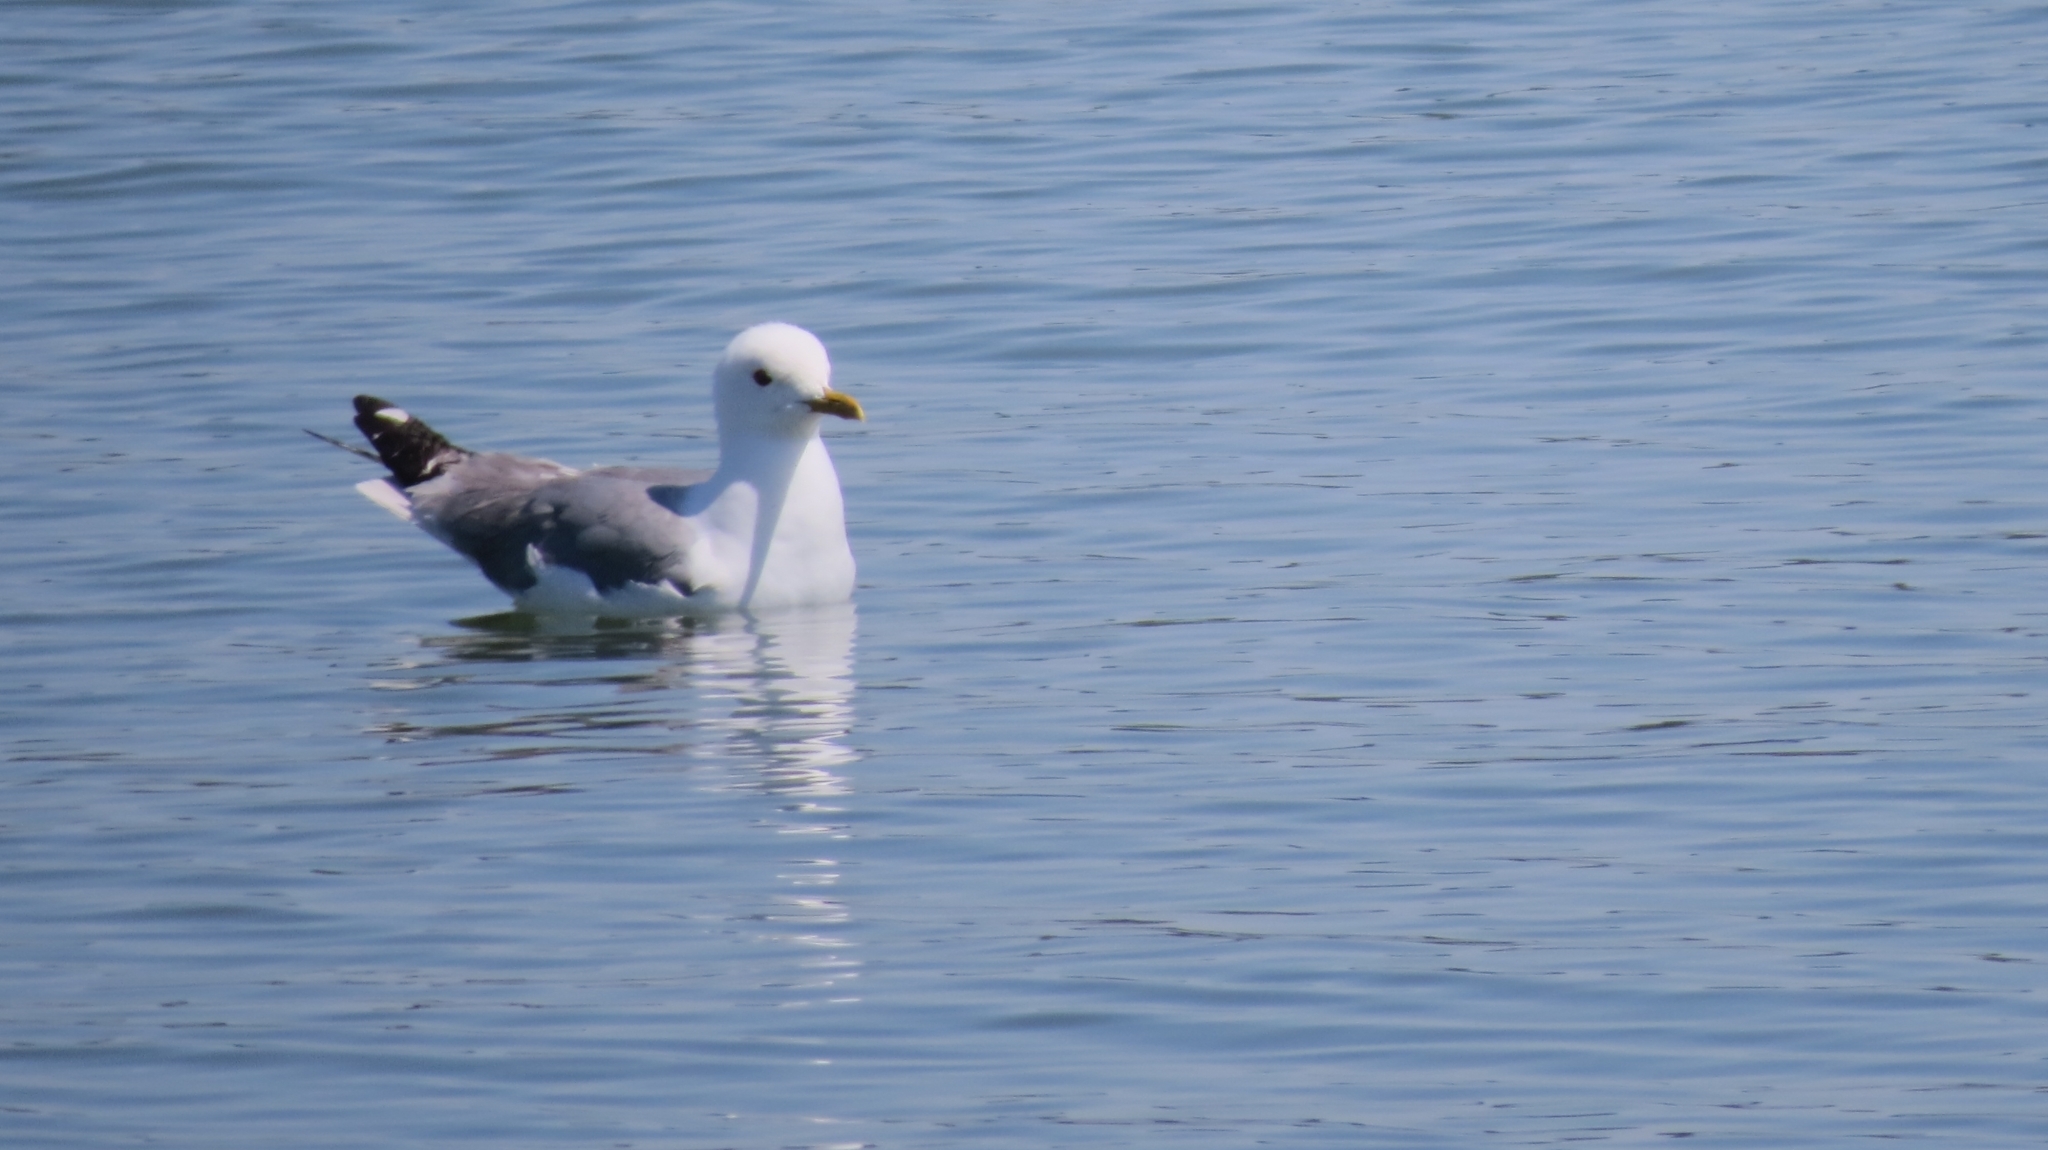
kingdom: Animalia
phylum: Chordata
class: Aves
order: Charadriiformes
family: Laridae
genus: Larus
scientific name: Larus canus
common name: Mew gull
